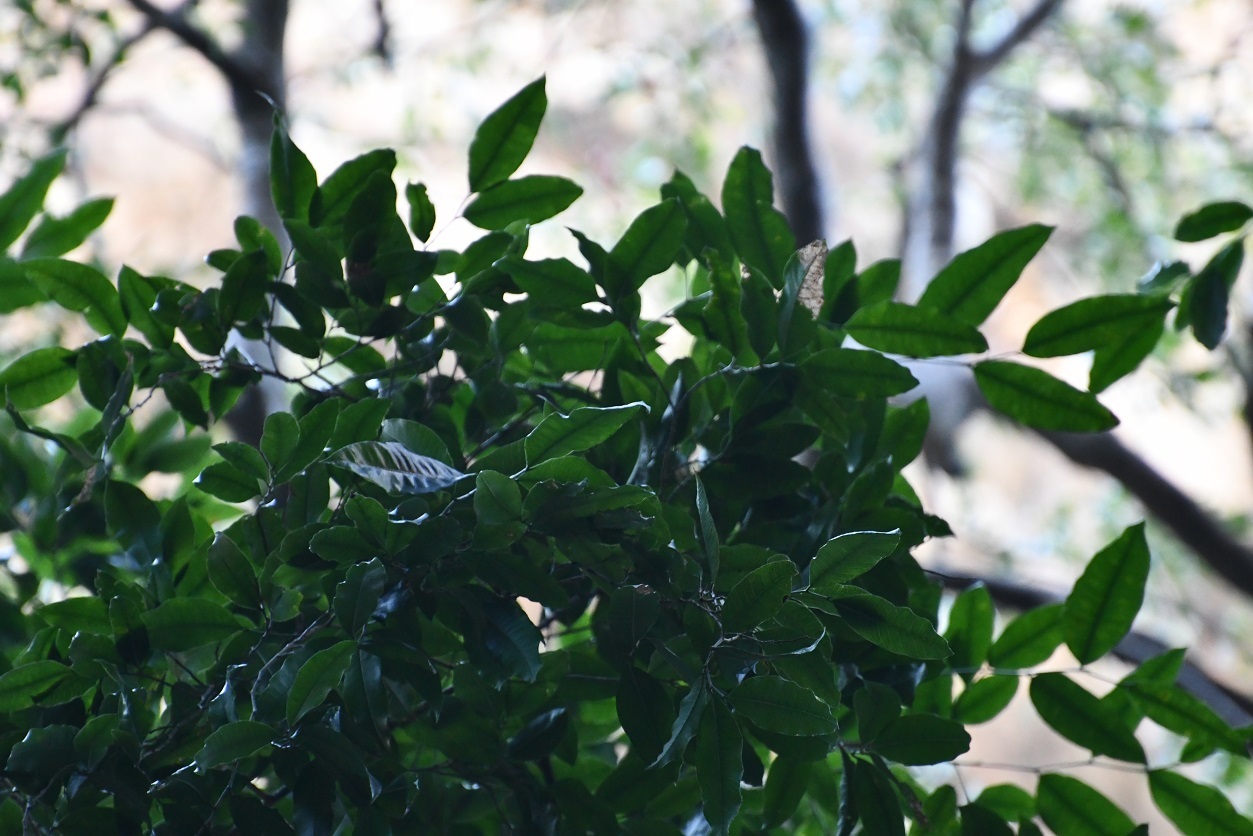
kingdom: Plantae
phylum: Tracheophyta
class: Magnoliopsida
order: Rosales
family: Moraceae
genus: Brosimum
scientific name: Brosimum alicastrum
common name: Breadnut
